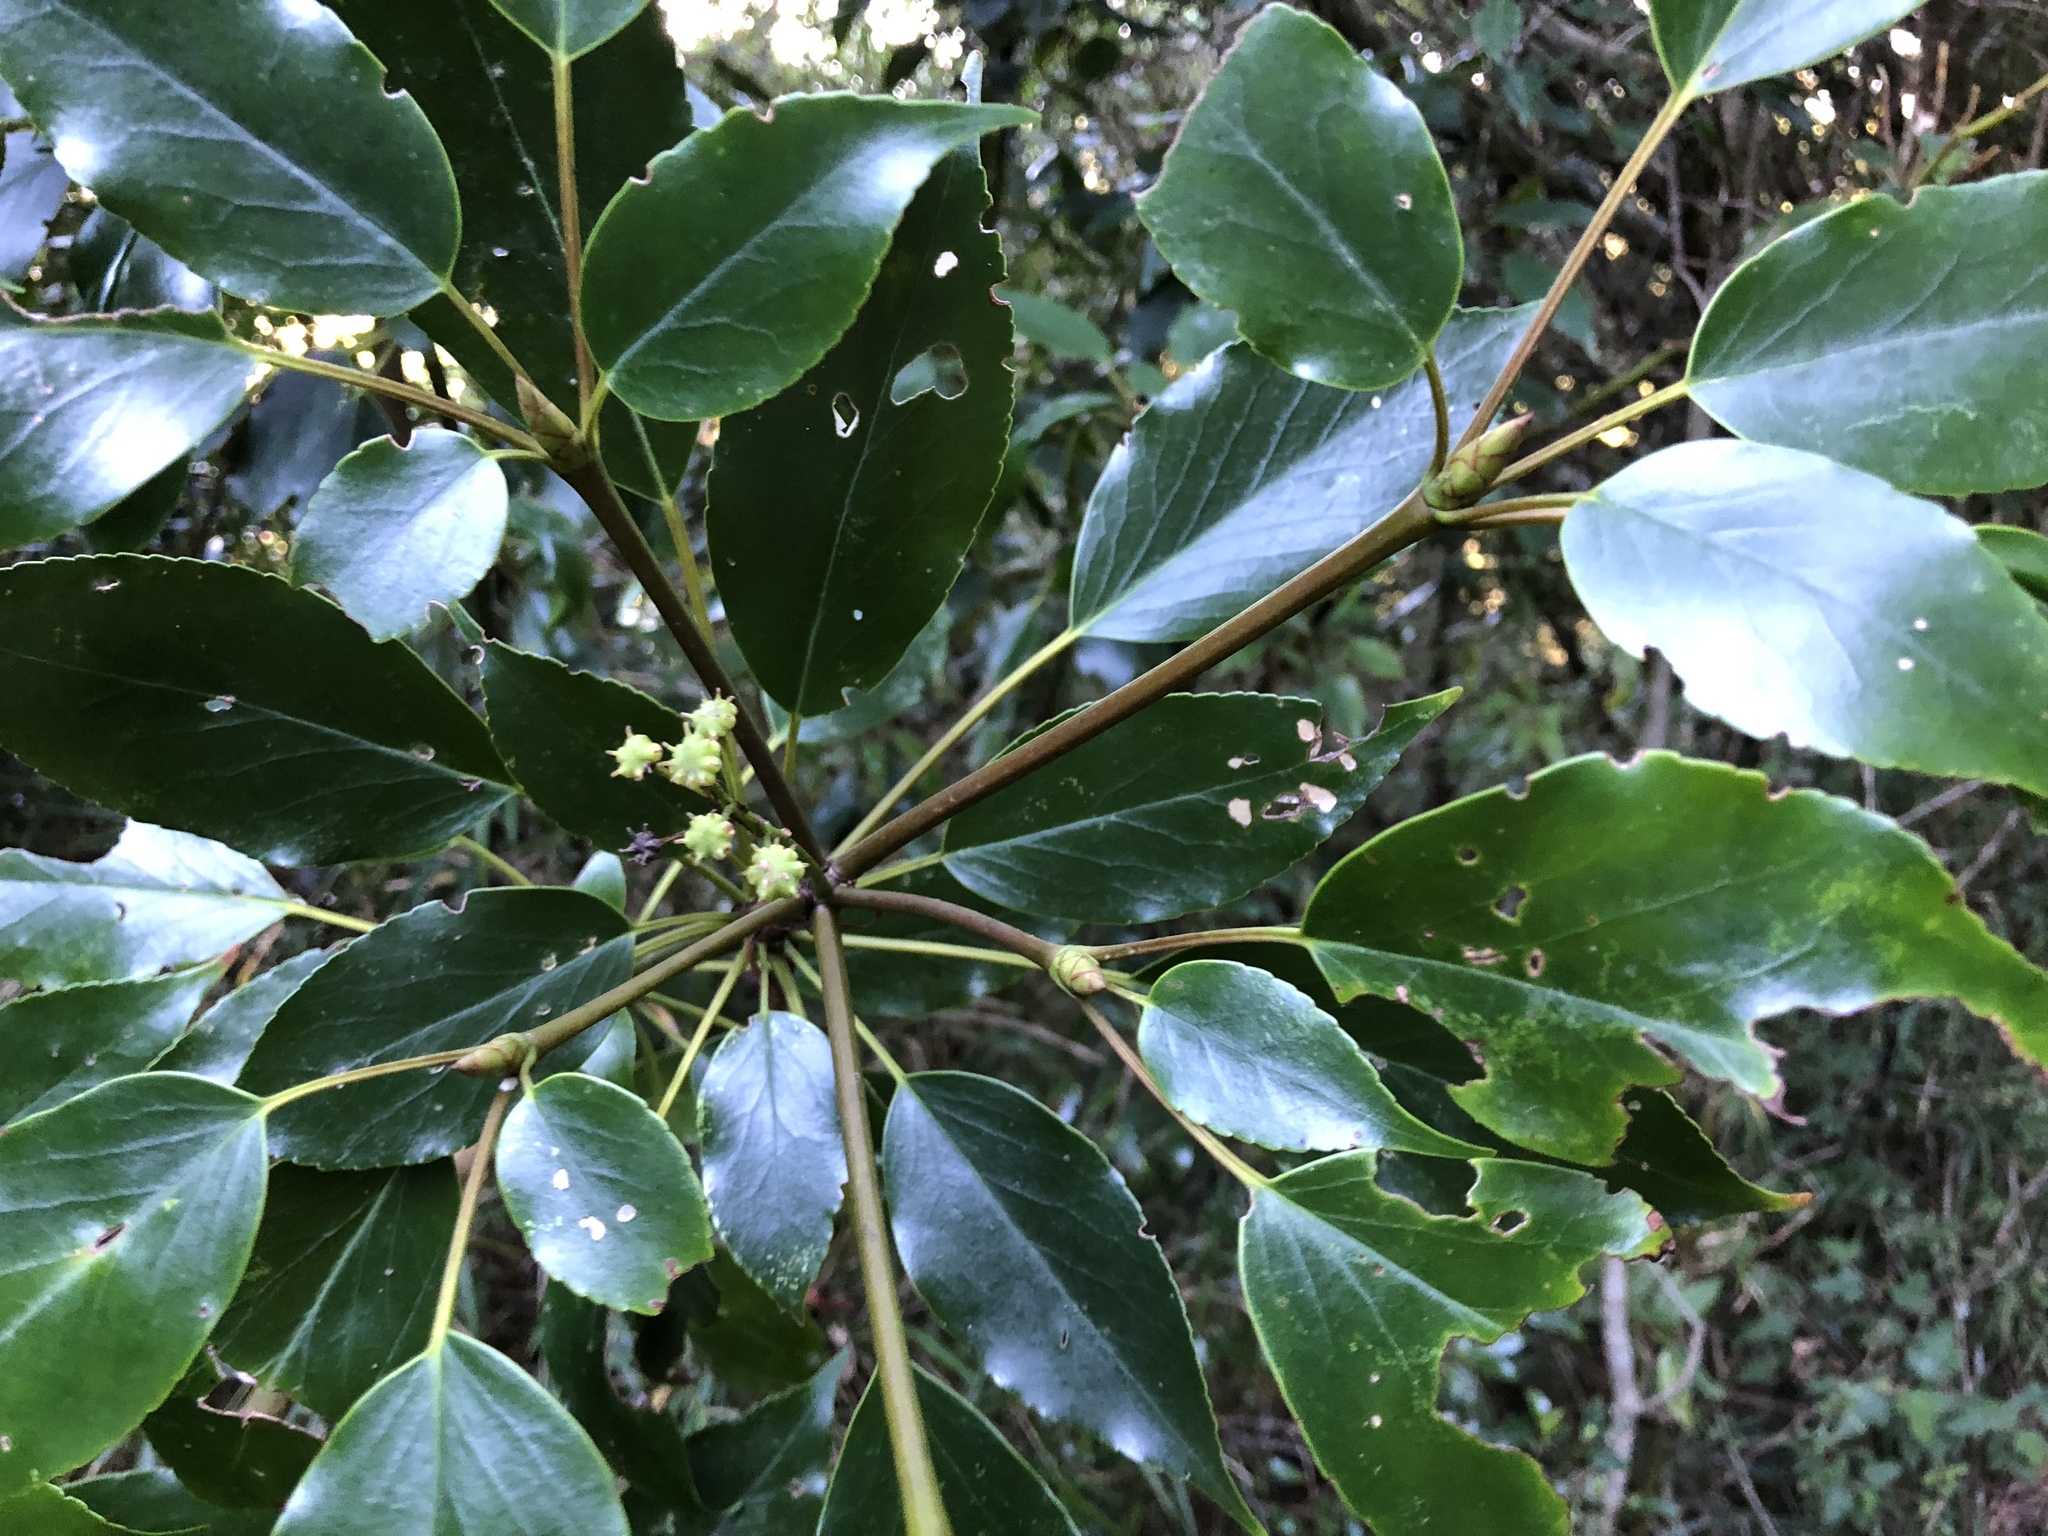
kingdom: Plantae
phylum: Tracheophyta
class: Magnoliopsida
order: Trochodendrales
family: Trochodendraceae
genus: Trochodendron
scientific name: Trochodendron aralioides
